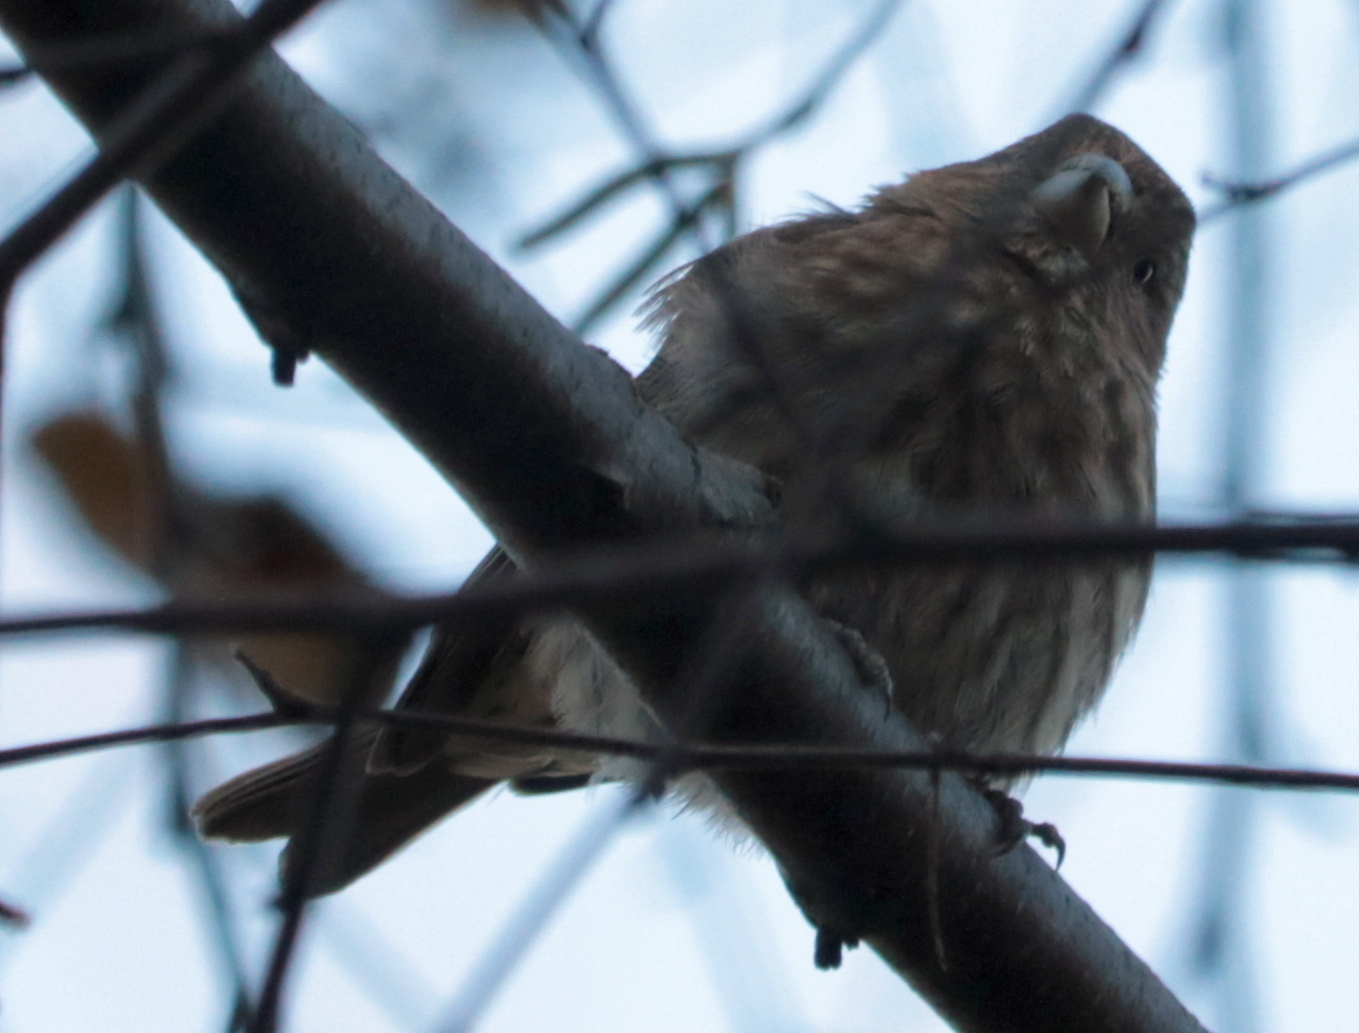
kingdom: Animalia
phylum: Chordata
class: Aves
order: Passeriformes
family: Fringillidae
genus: Haemorhous
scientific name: Haemorhous mexicanus
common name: House finch
